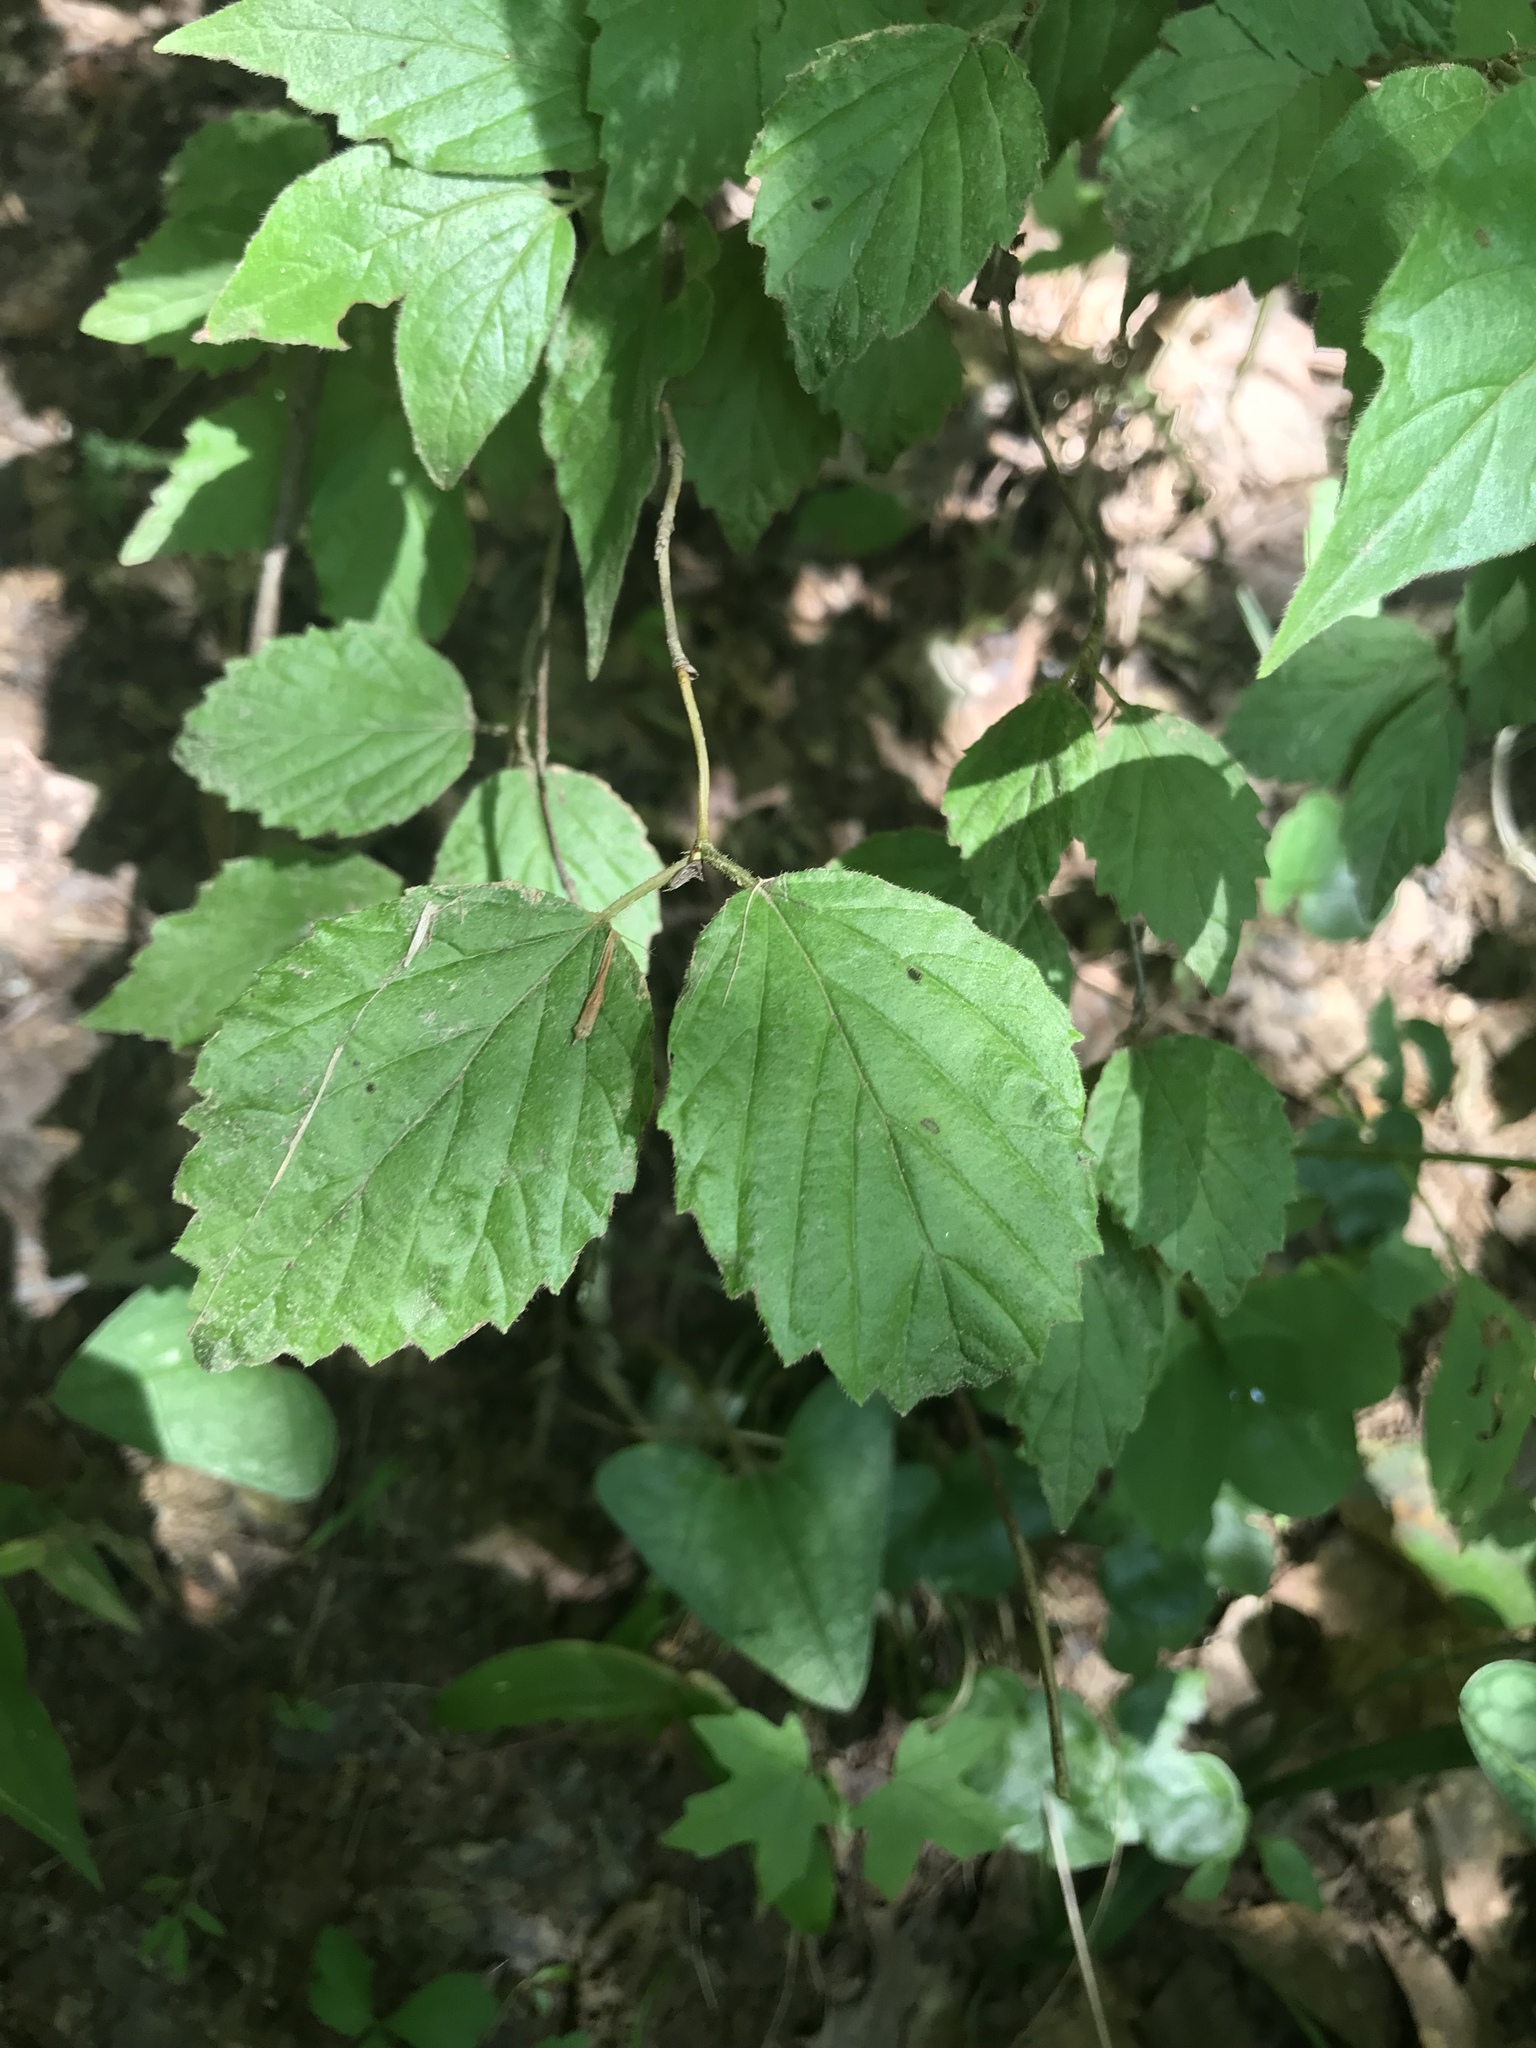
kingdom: Plantae
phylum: Tracheophyta
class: Magnoliopsida
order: Dipsacales
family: Viburnaceae
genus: Viburnum
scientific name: Viburnum rafinesqueanum
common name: Downy arrow-wood
